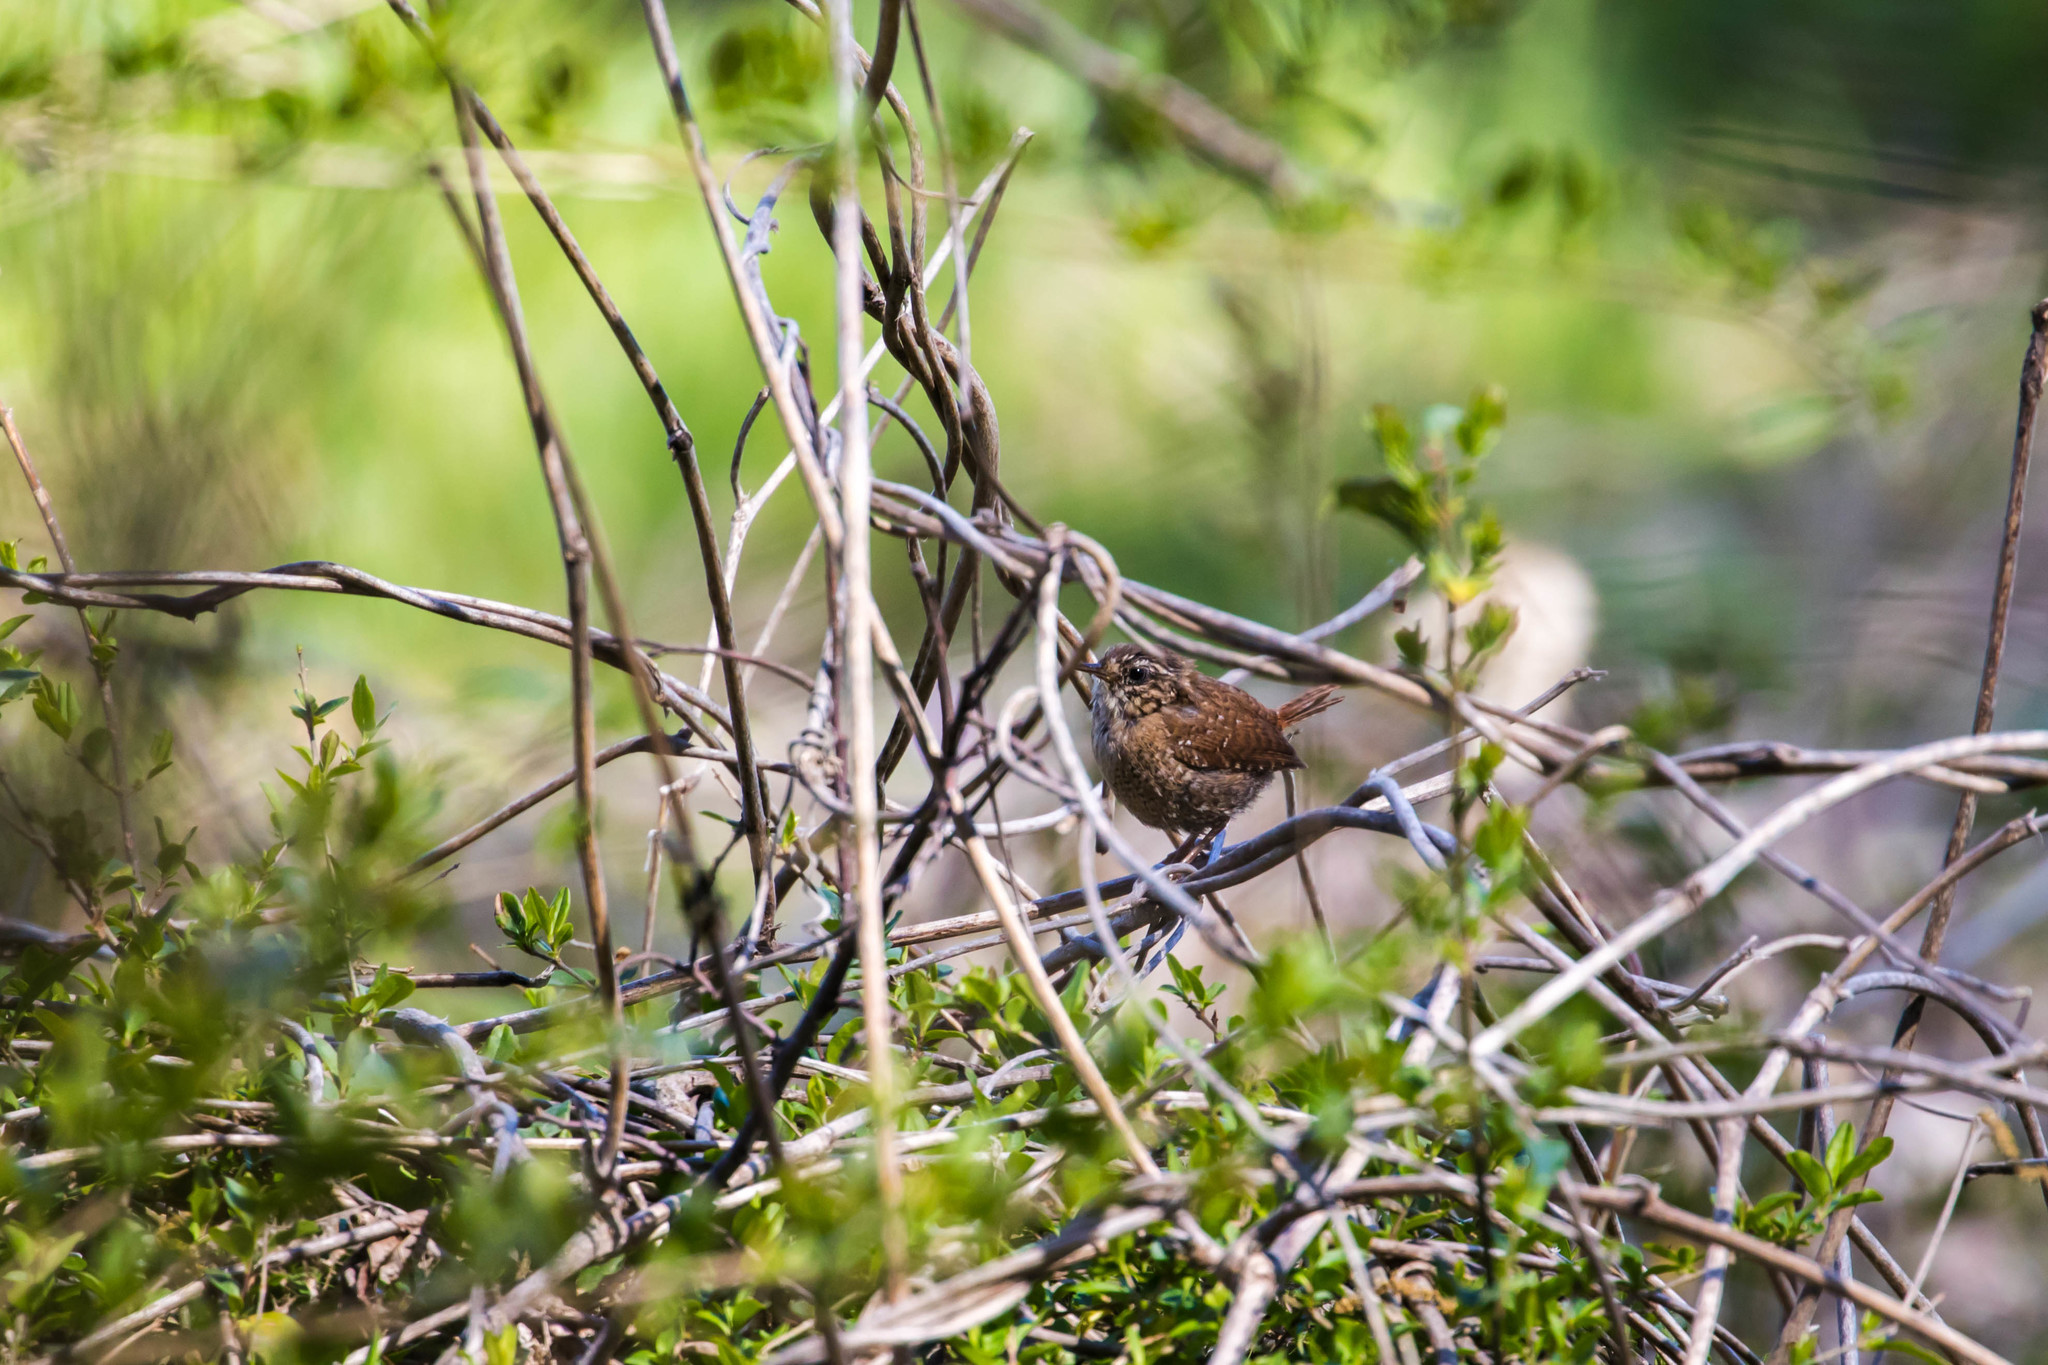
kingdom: Animalia
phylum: Chordata
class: Aves
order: Passeriformes
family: Troglodytidae
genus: Troglodytes
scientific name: Troglodytes hiemalis
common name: Winter wren
